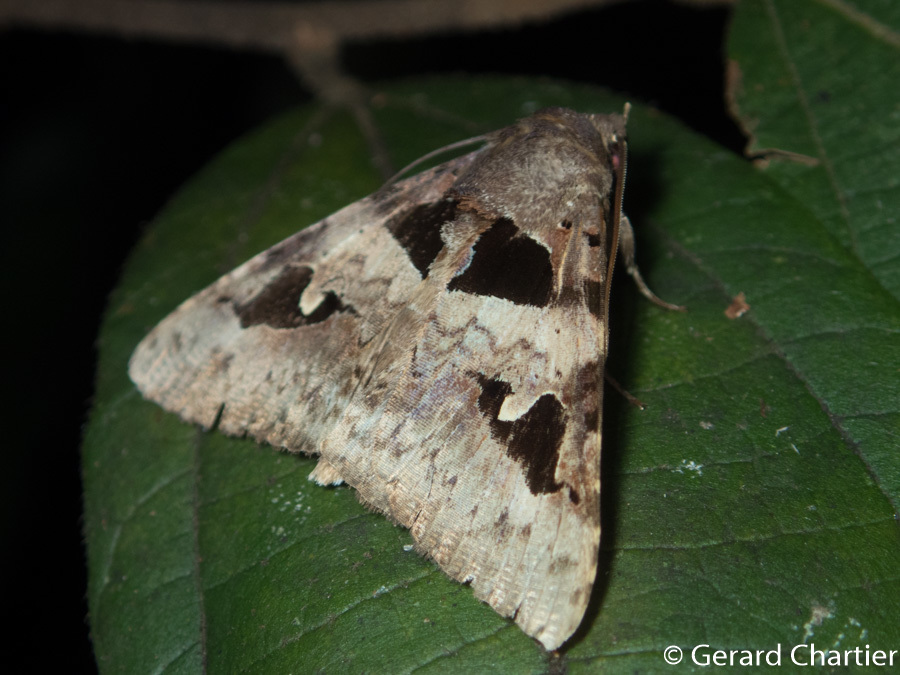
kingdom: Animalia
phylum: Arthropoda
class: Insecta
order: Lepidoptera
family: Erebidae
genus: Avatha
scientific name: Avatha bubo
